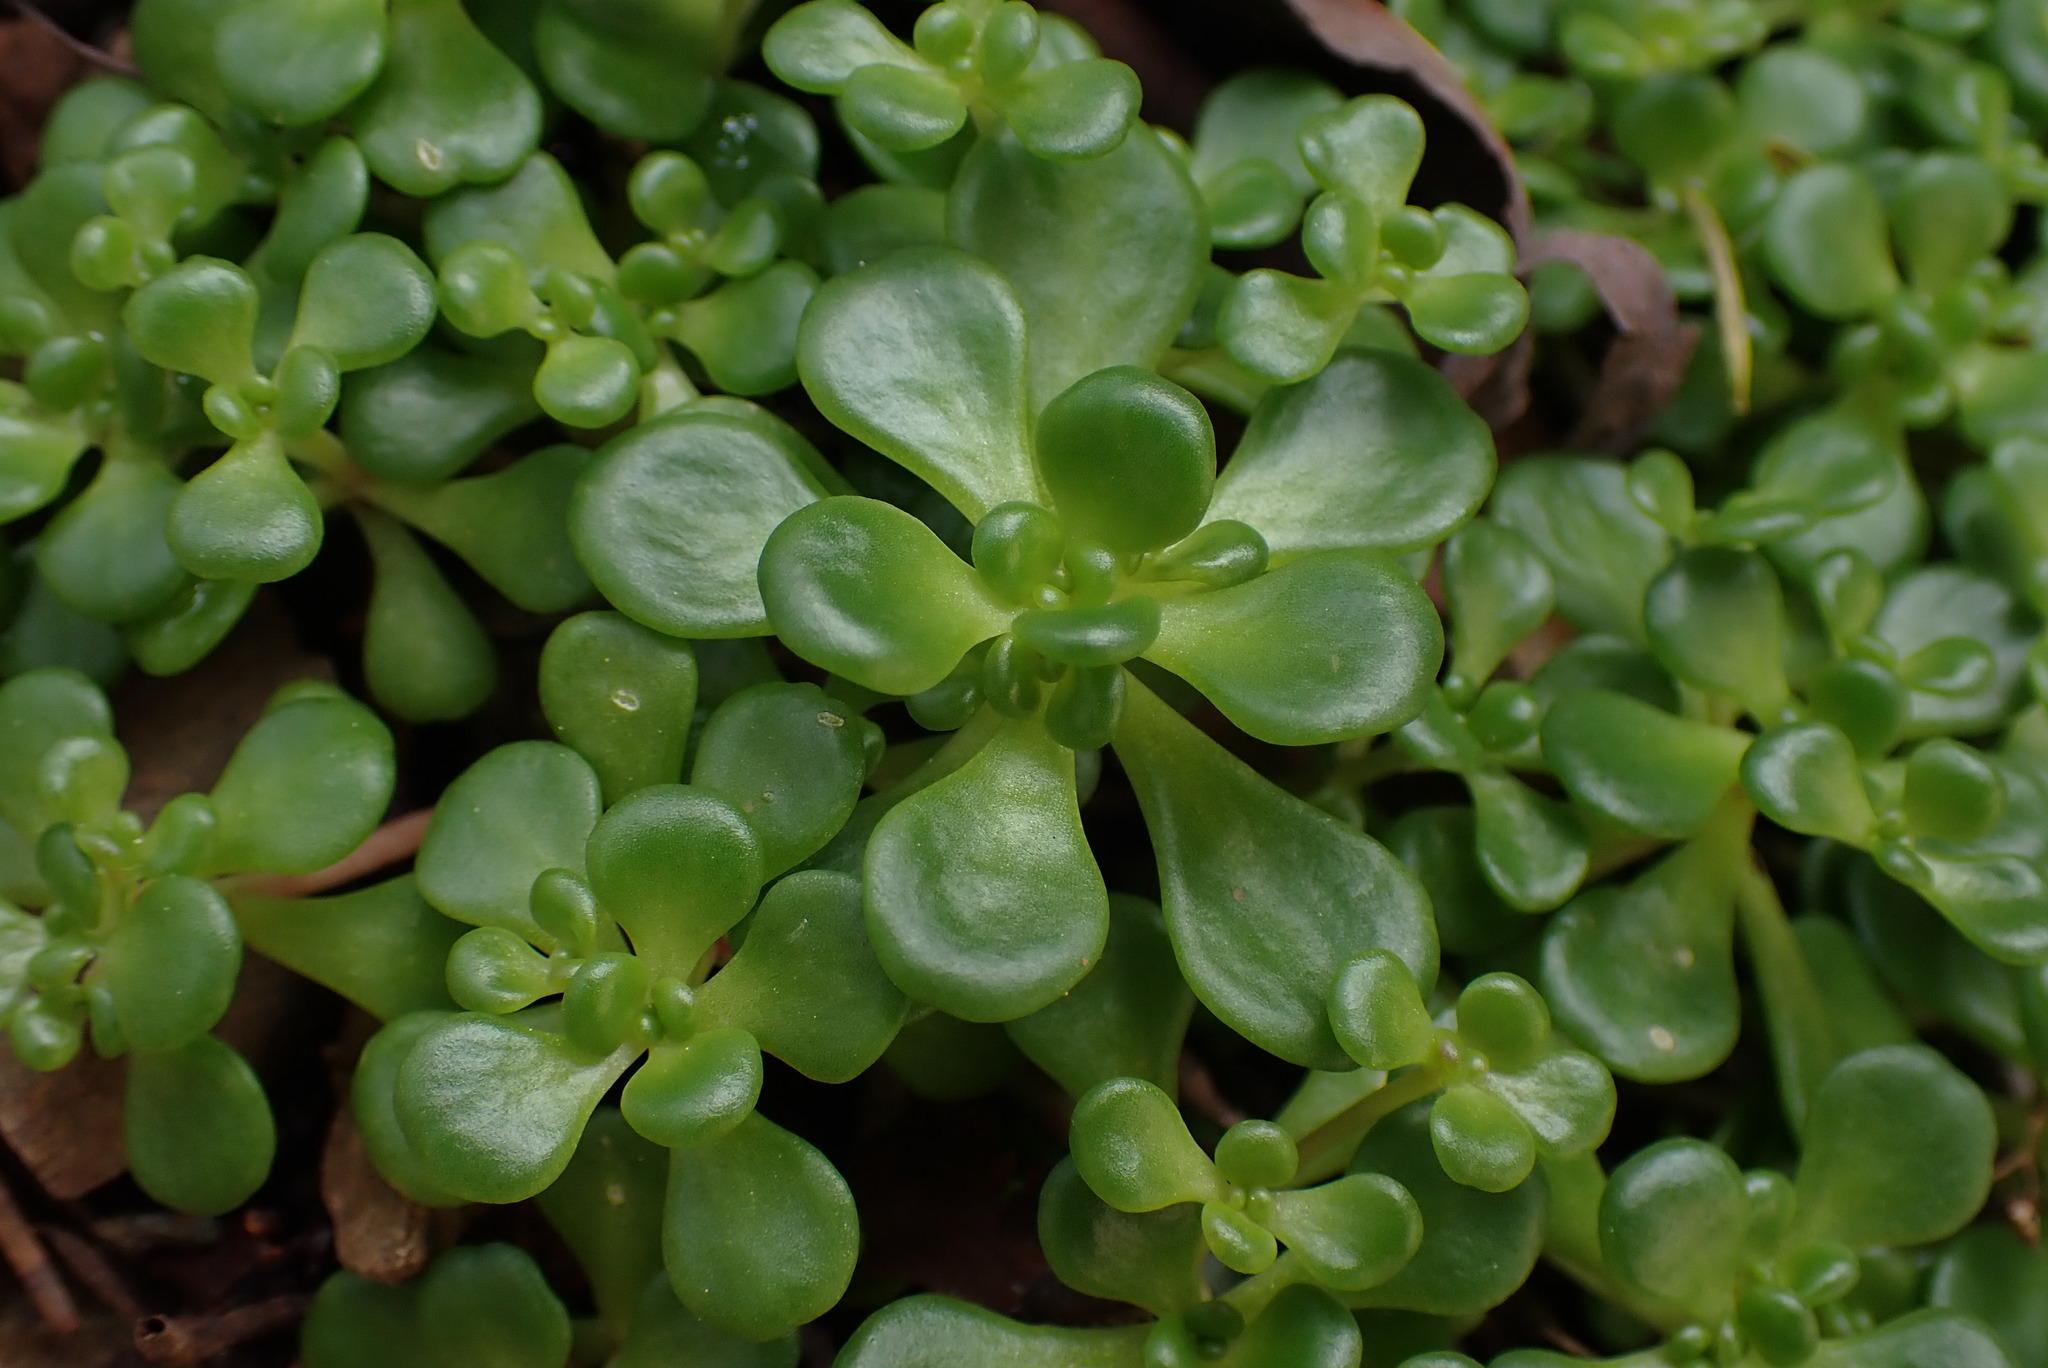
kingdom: Plantae
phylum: Tracheophyta
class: Magnoliopsida
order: Saxifragales
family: Crassulaceae
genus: Sedum
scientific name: Sedum oreganum
